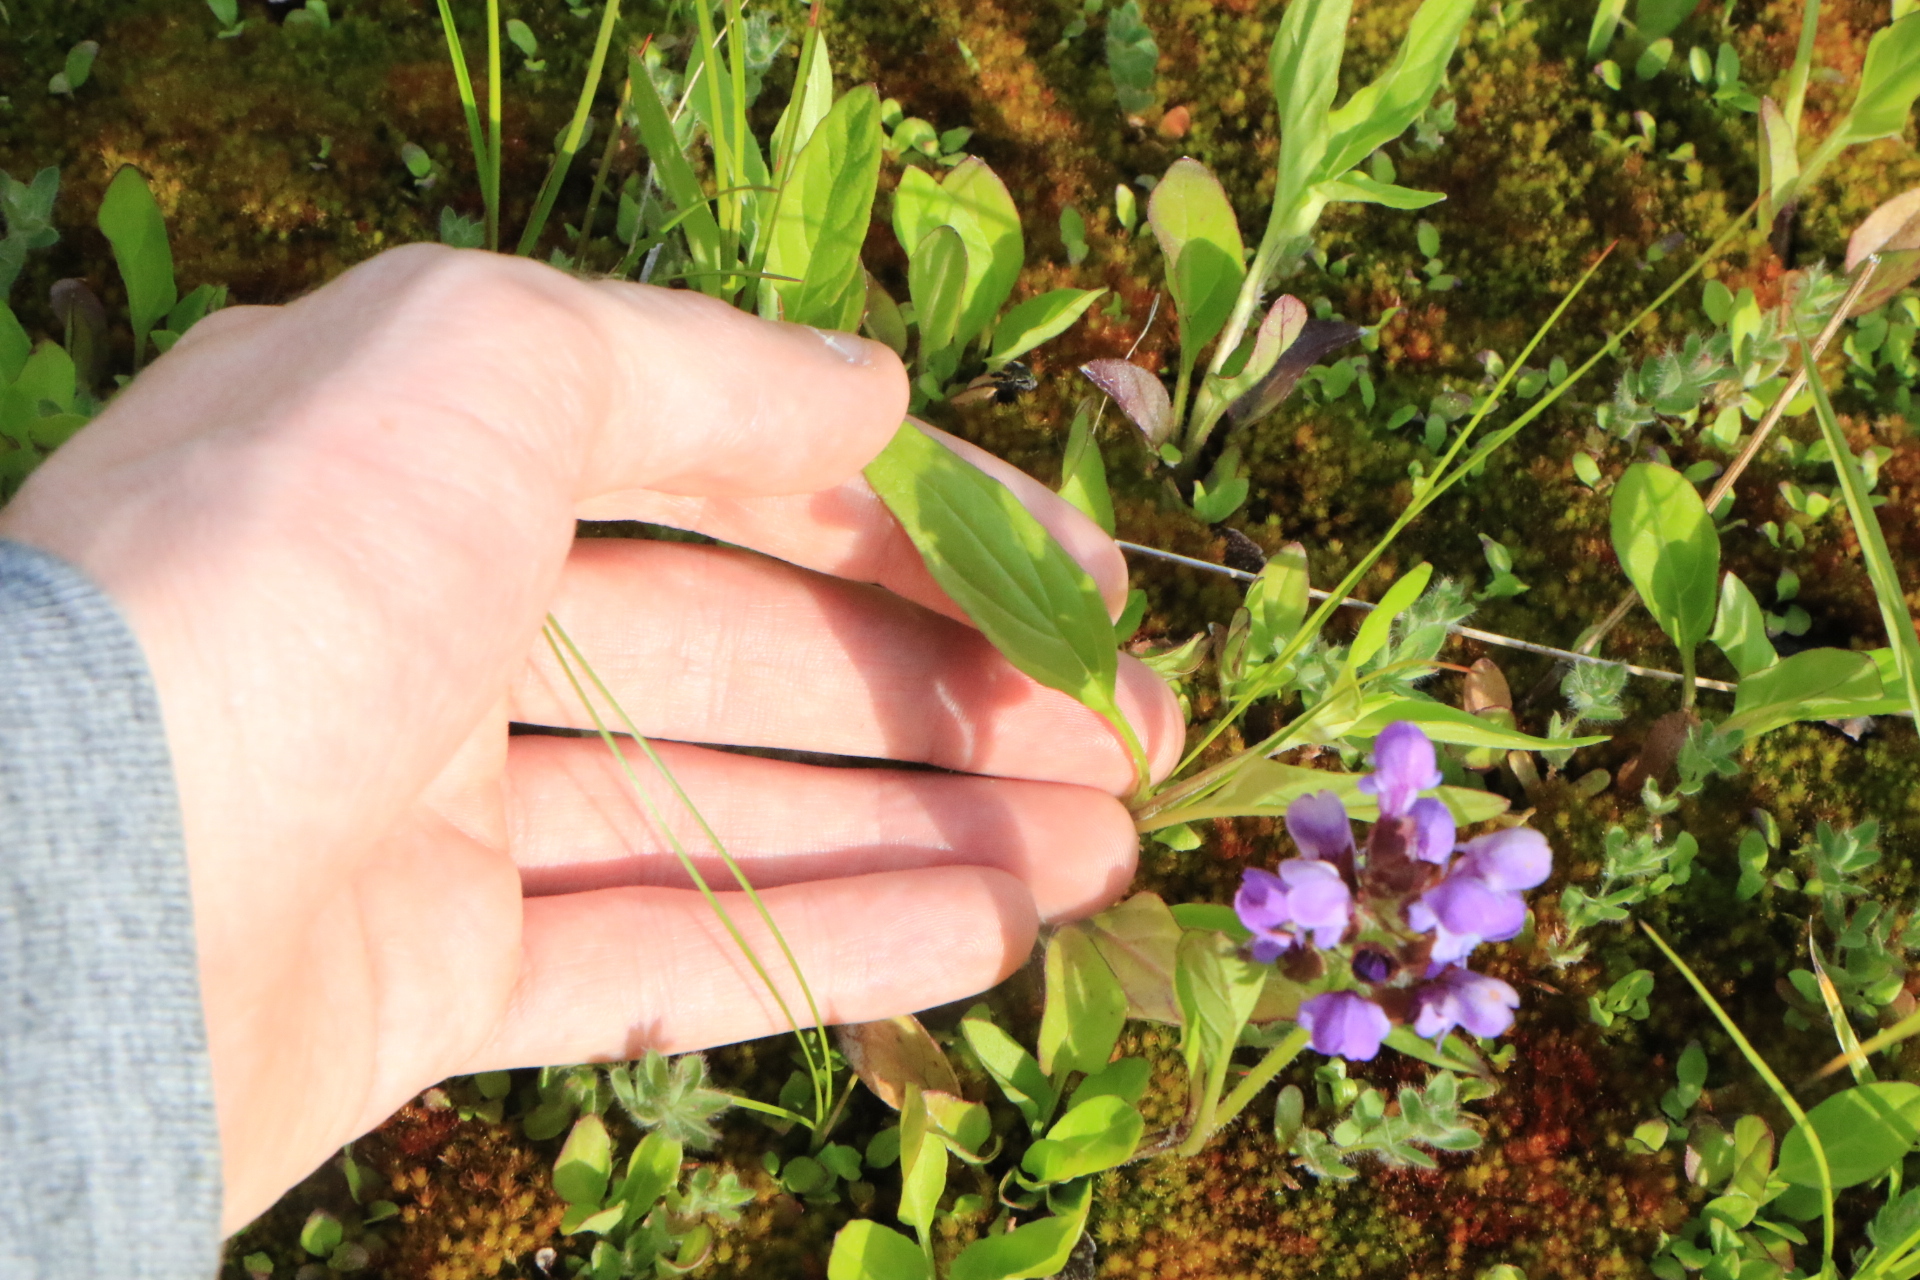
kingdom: Plantae
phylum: Tracheophyta
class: Magnoliopsida
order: Lamiales
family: Lamiaceae
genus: Prunella
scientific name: Prunella vulgaris
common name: Heal-all
